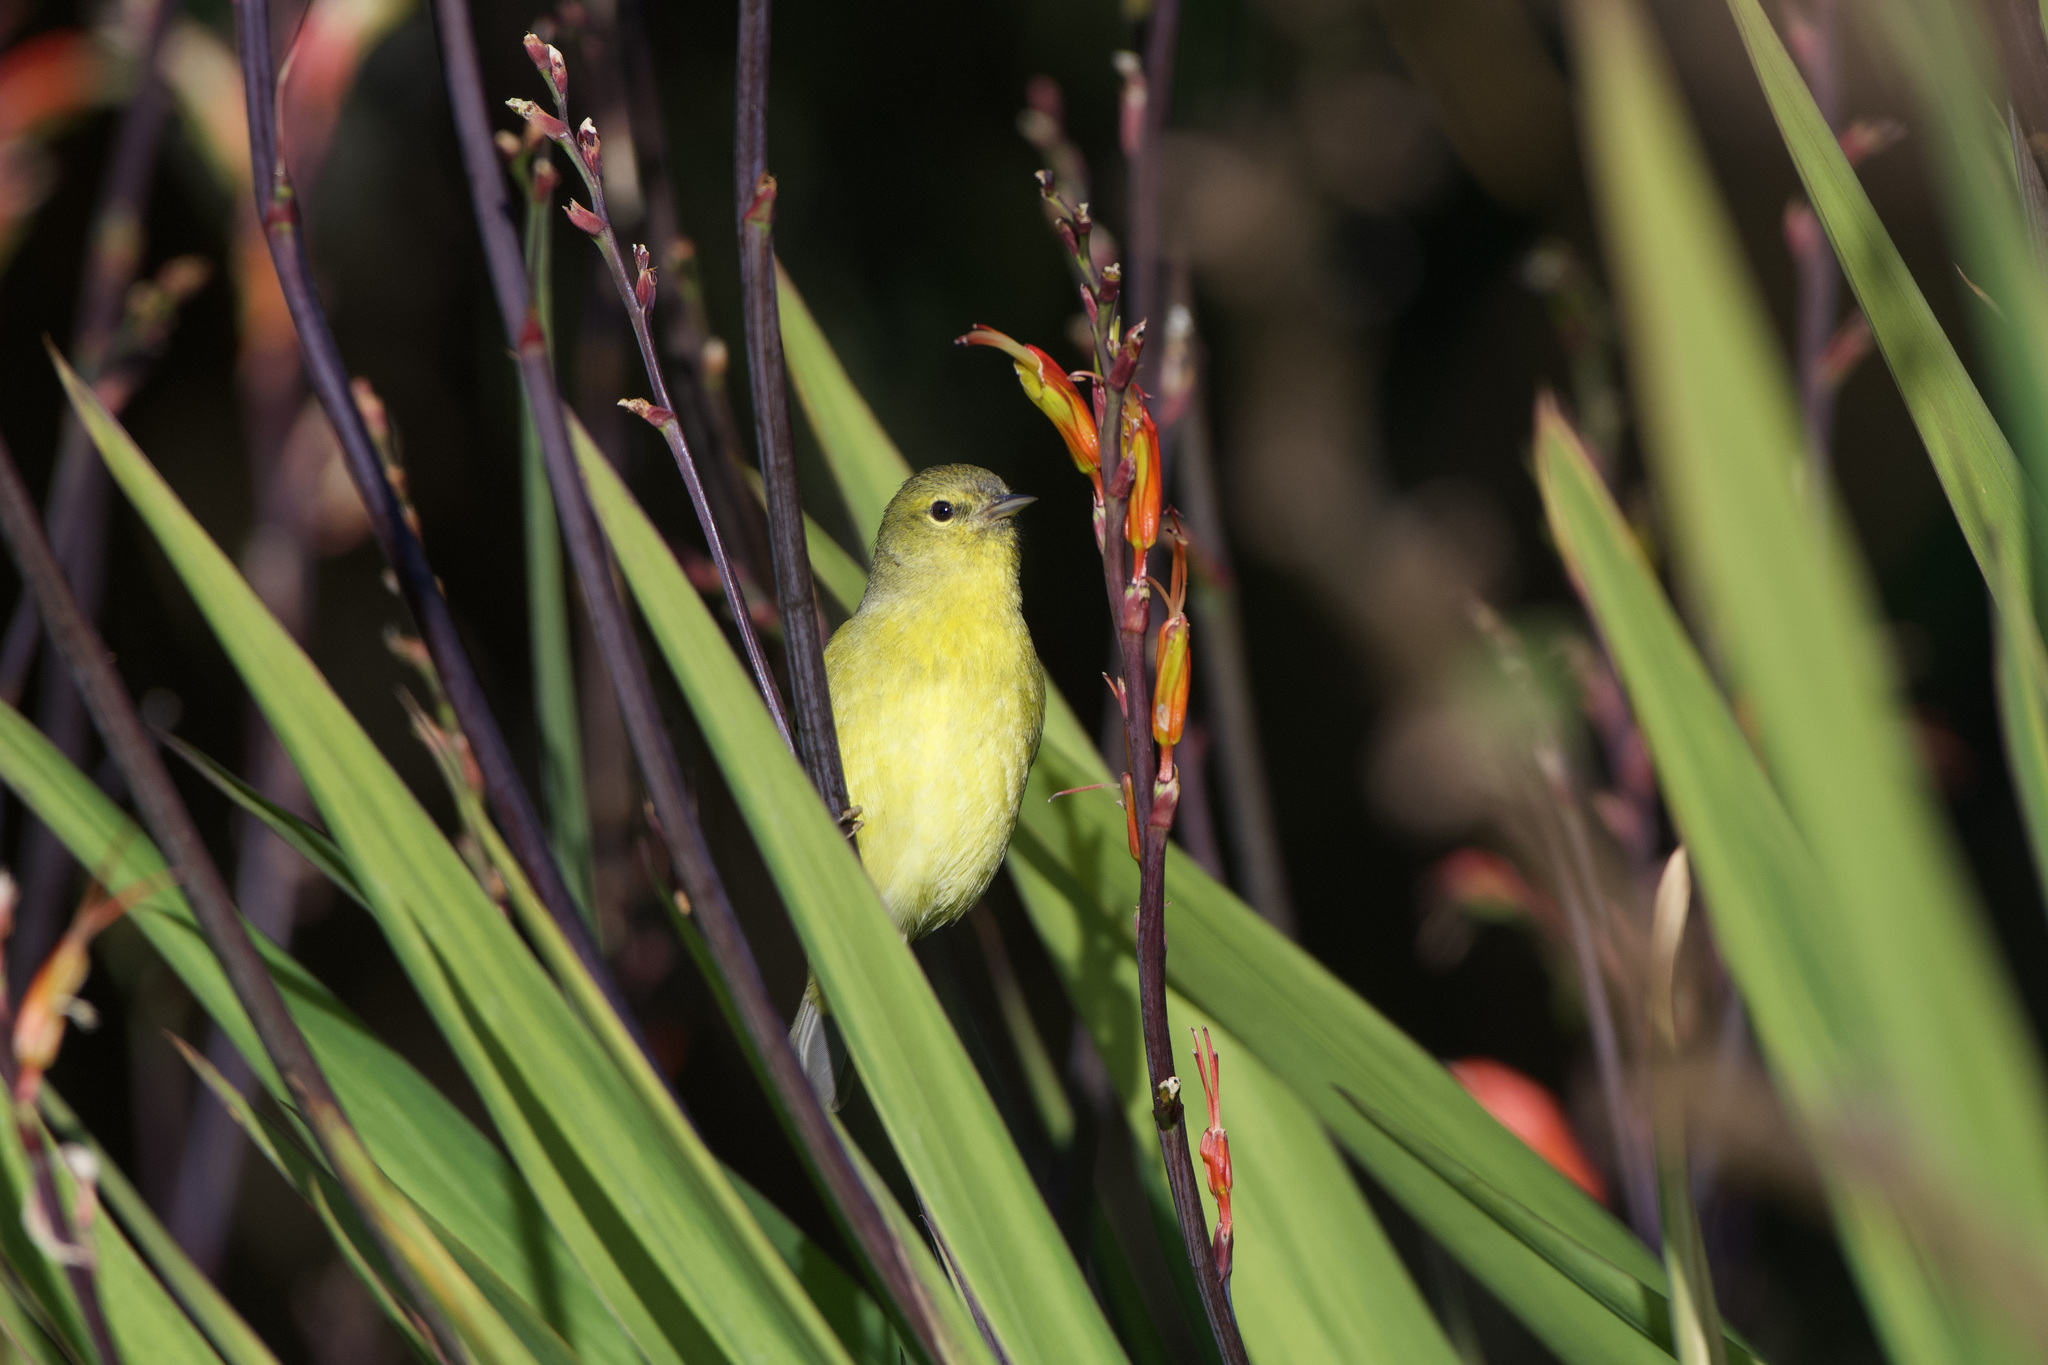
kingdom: Animalia
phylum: Chordata
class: Aves
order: Passeriformes
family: Parulidae
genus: Leiothlypis
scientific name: Leiothlypis celata
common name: Orange-crowned warbler
